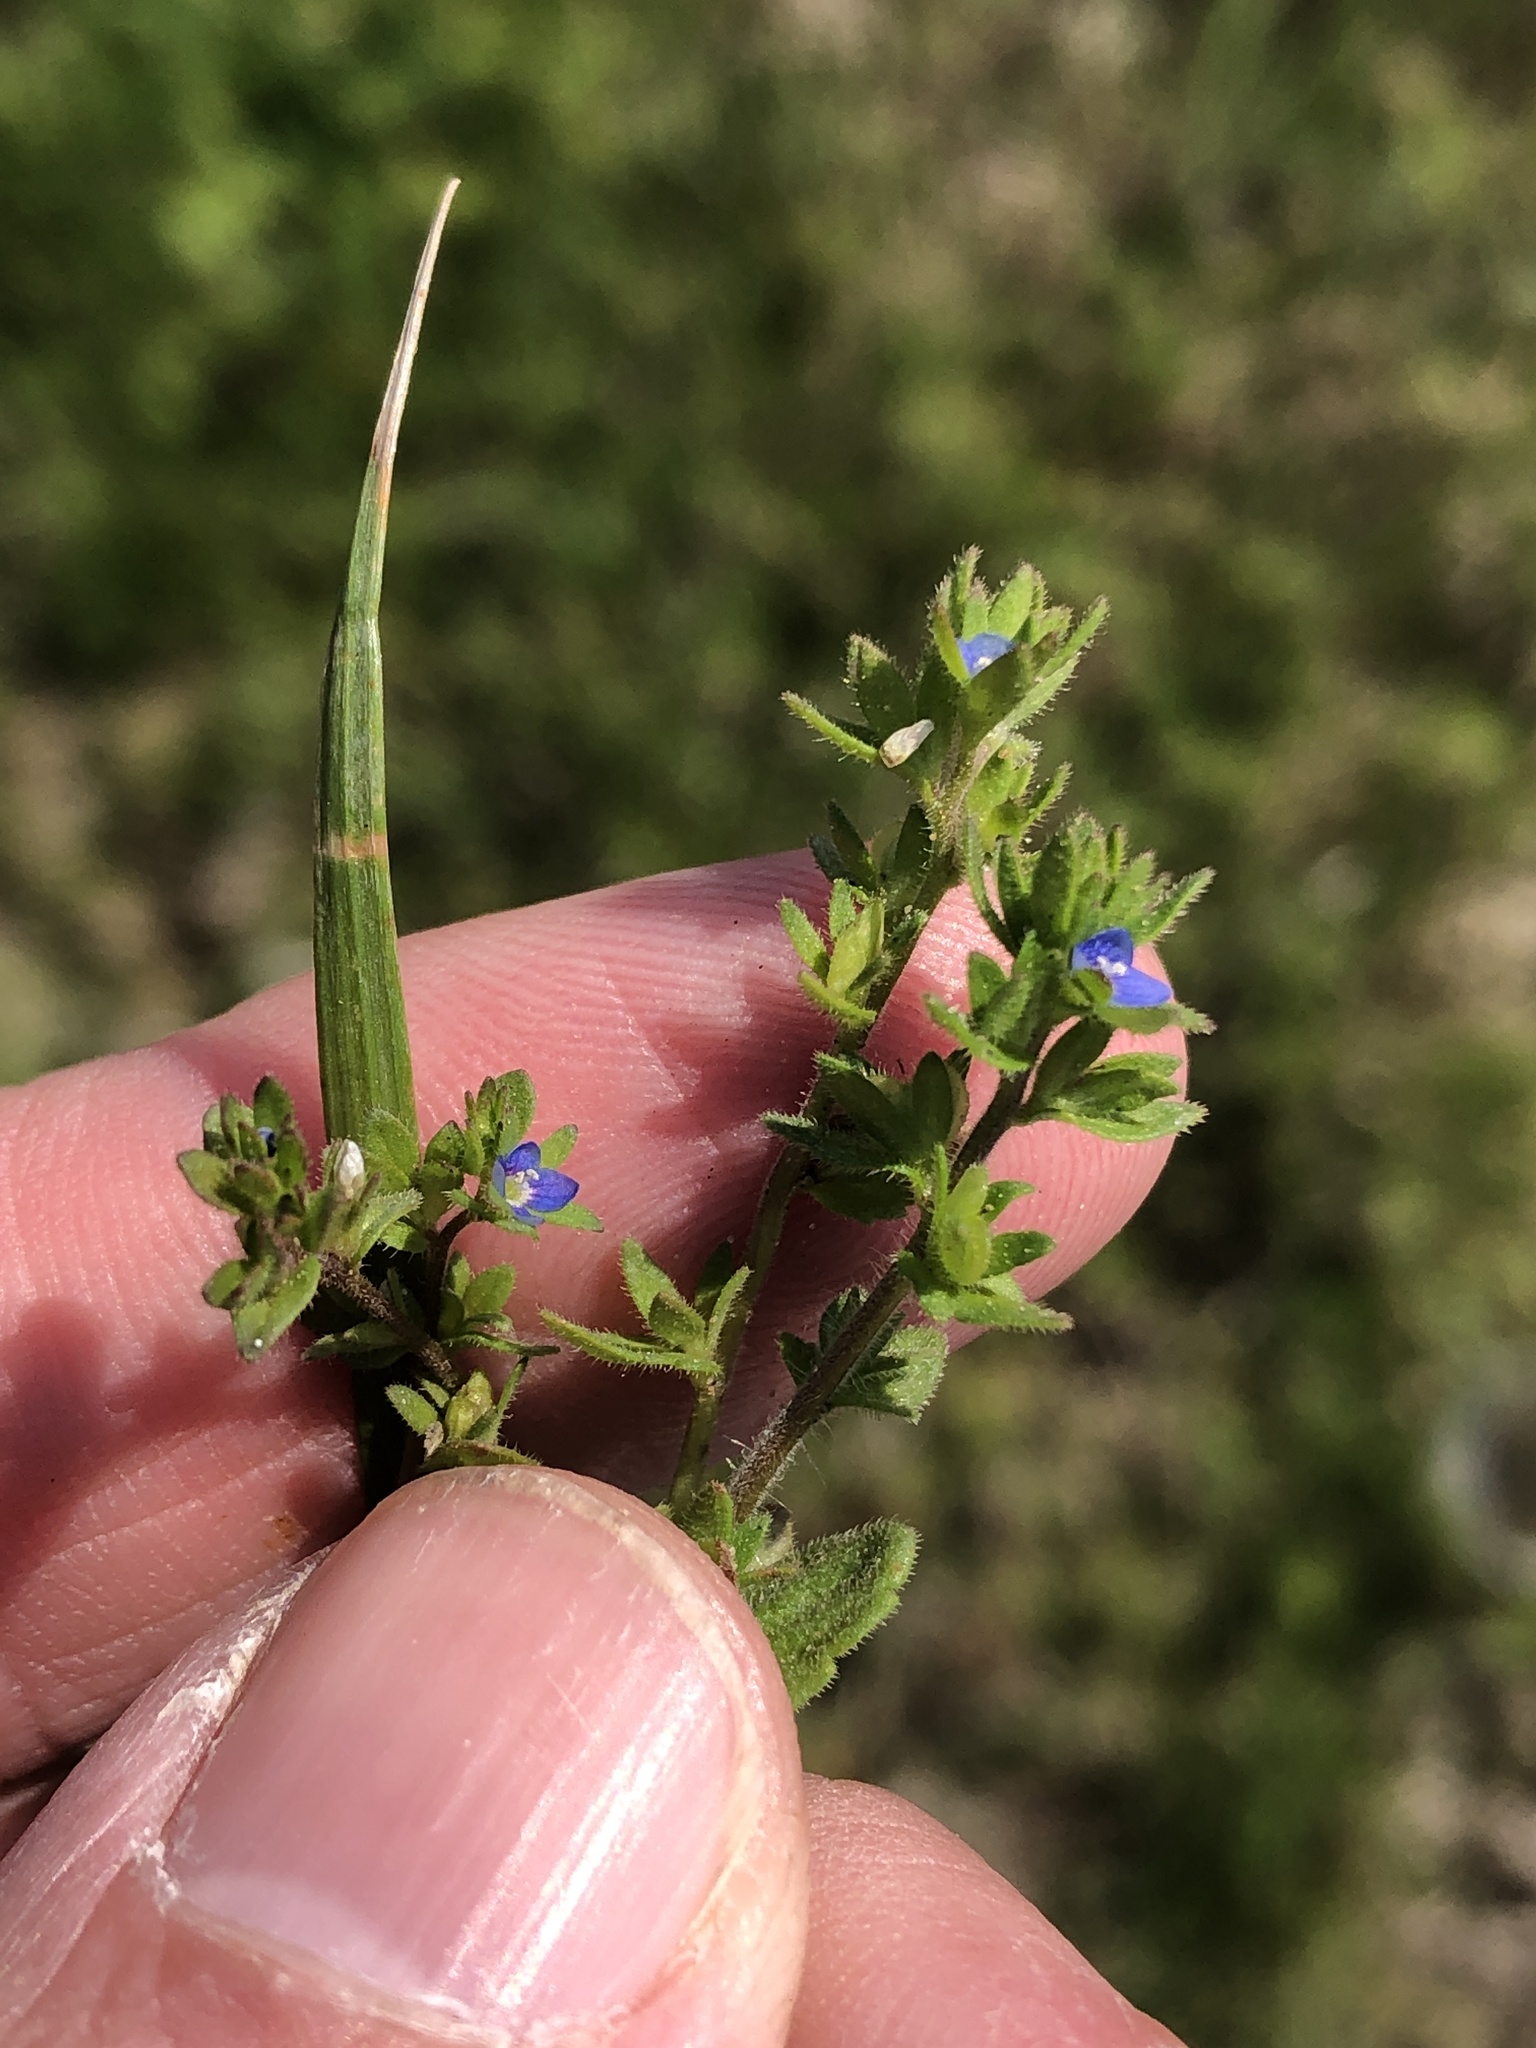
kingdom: Plantae
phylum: Tracheophyta
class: Magnoliopsida
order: Lamiales
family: Plantaginaceae
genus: Veronica
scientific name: Veronica arvensis
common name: Corn speedwell
